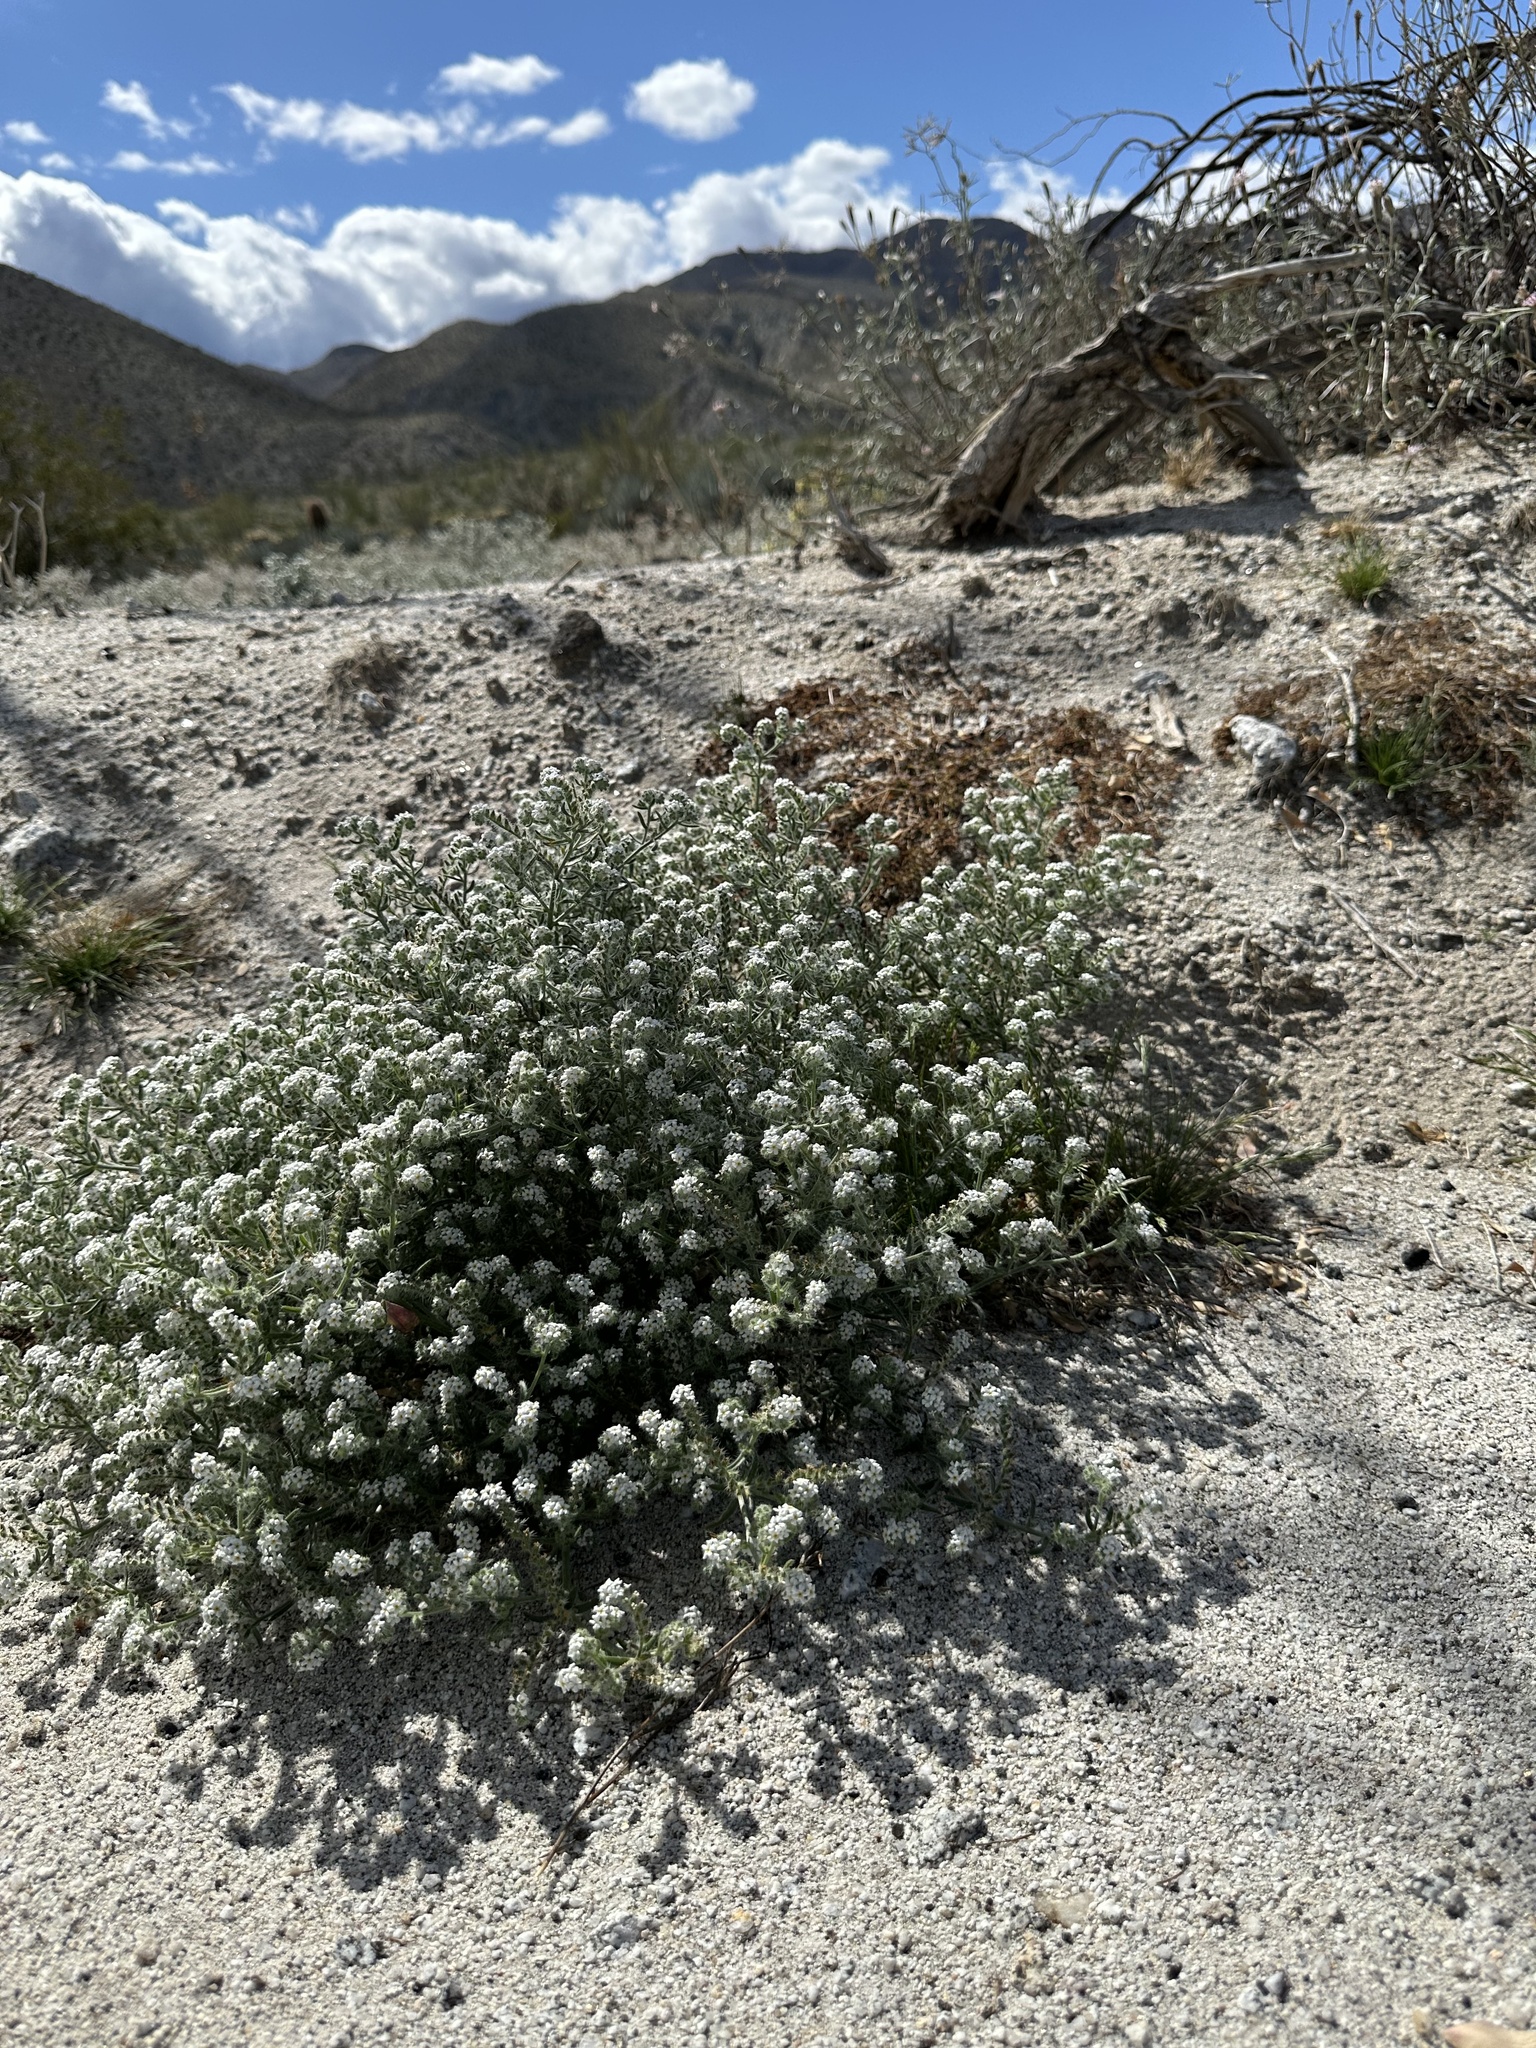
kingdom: Plantae
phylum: Tracheophyta
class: Magnoliopsida
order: Boraginales
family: Boraginaceae
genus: Johnstonella
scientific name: Johnstonella angustifolia
